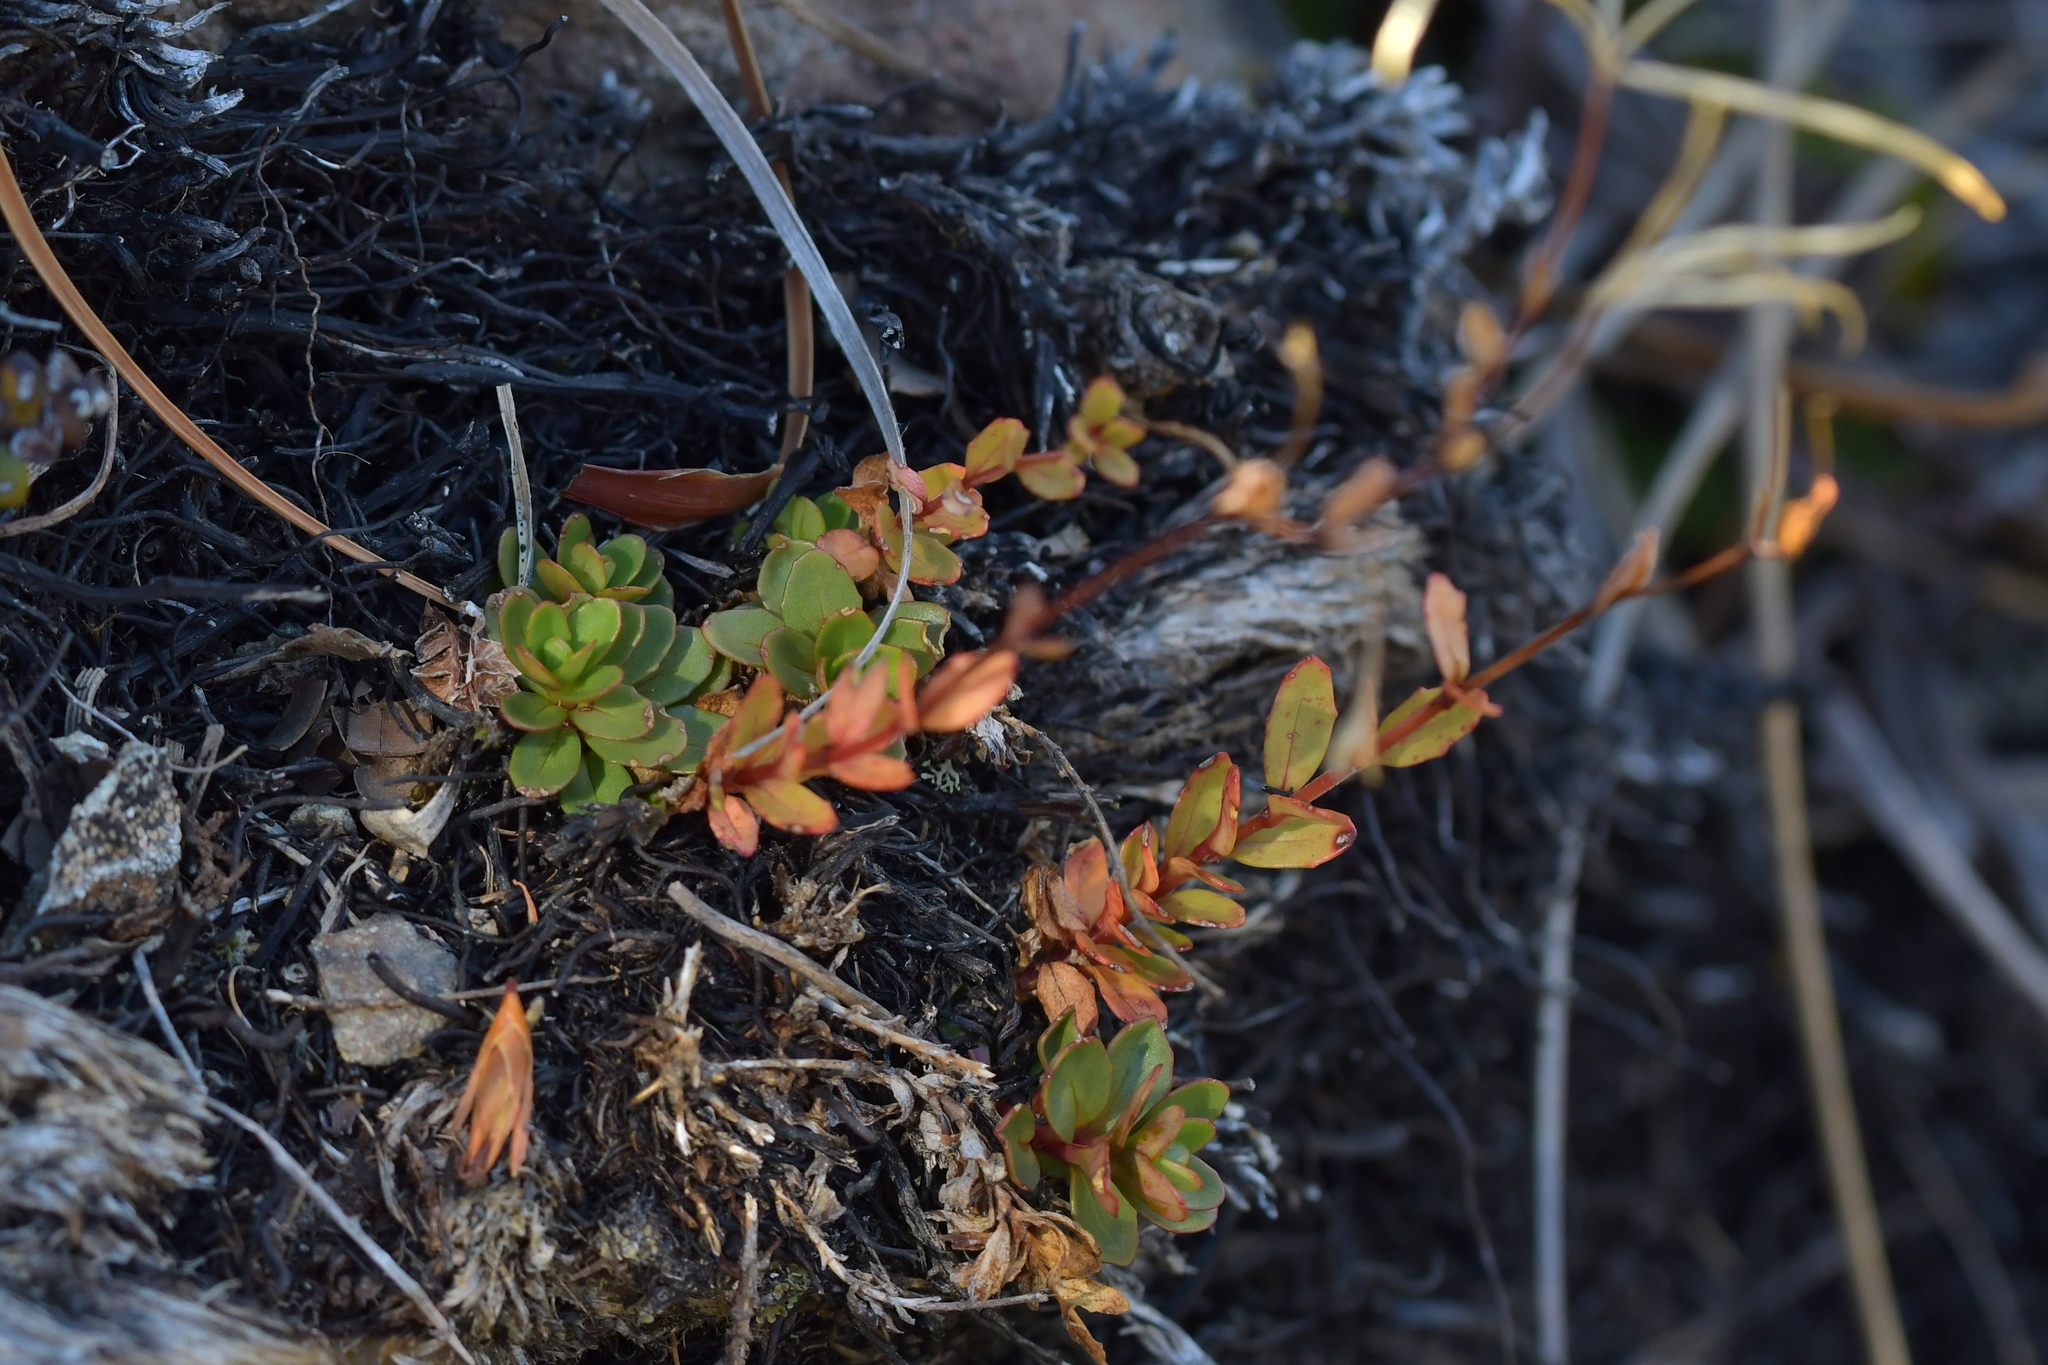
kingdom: Plantae
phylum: Tracheophyta
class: Magnoliopsida
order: Myrtales
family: Onagraceae
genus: Epilobium
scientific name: Epilobium alsinoides
